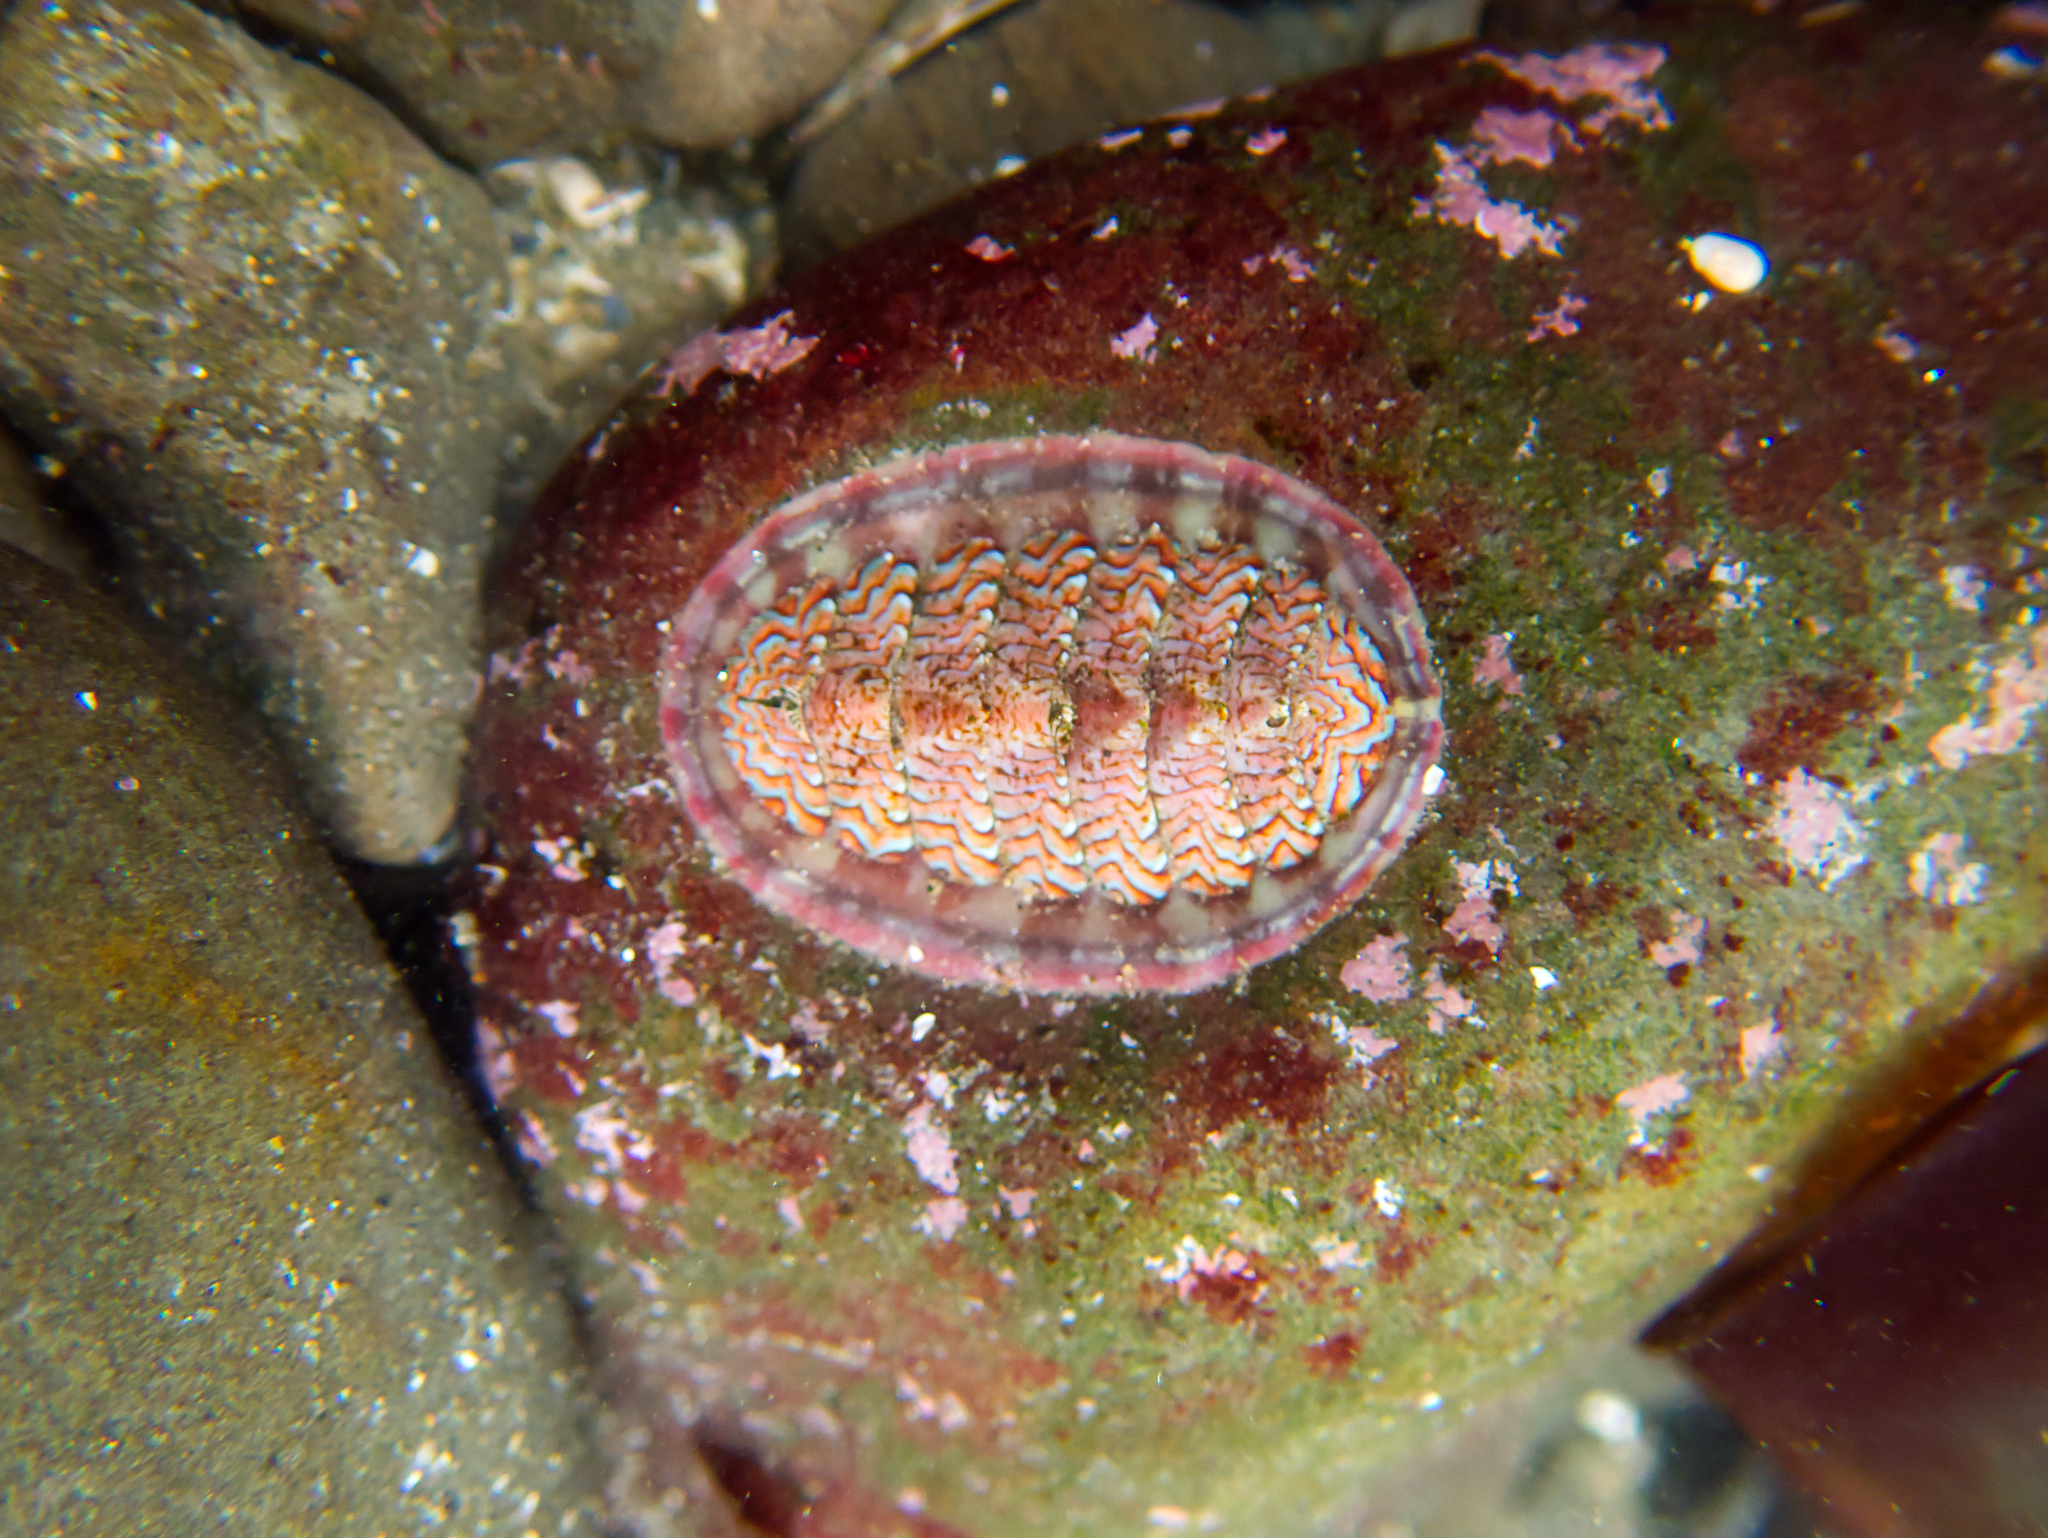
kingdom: Animalia
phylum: Mollusca
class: Polyplacophora
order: Chitonida
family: Tonicellidae
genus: Tonicella
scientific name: Tonicella lokii
